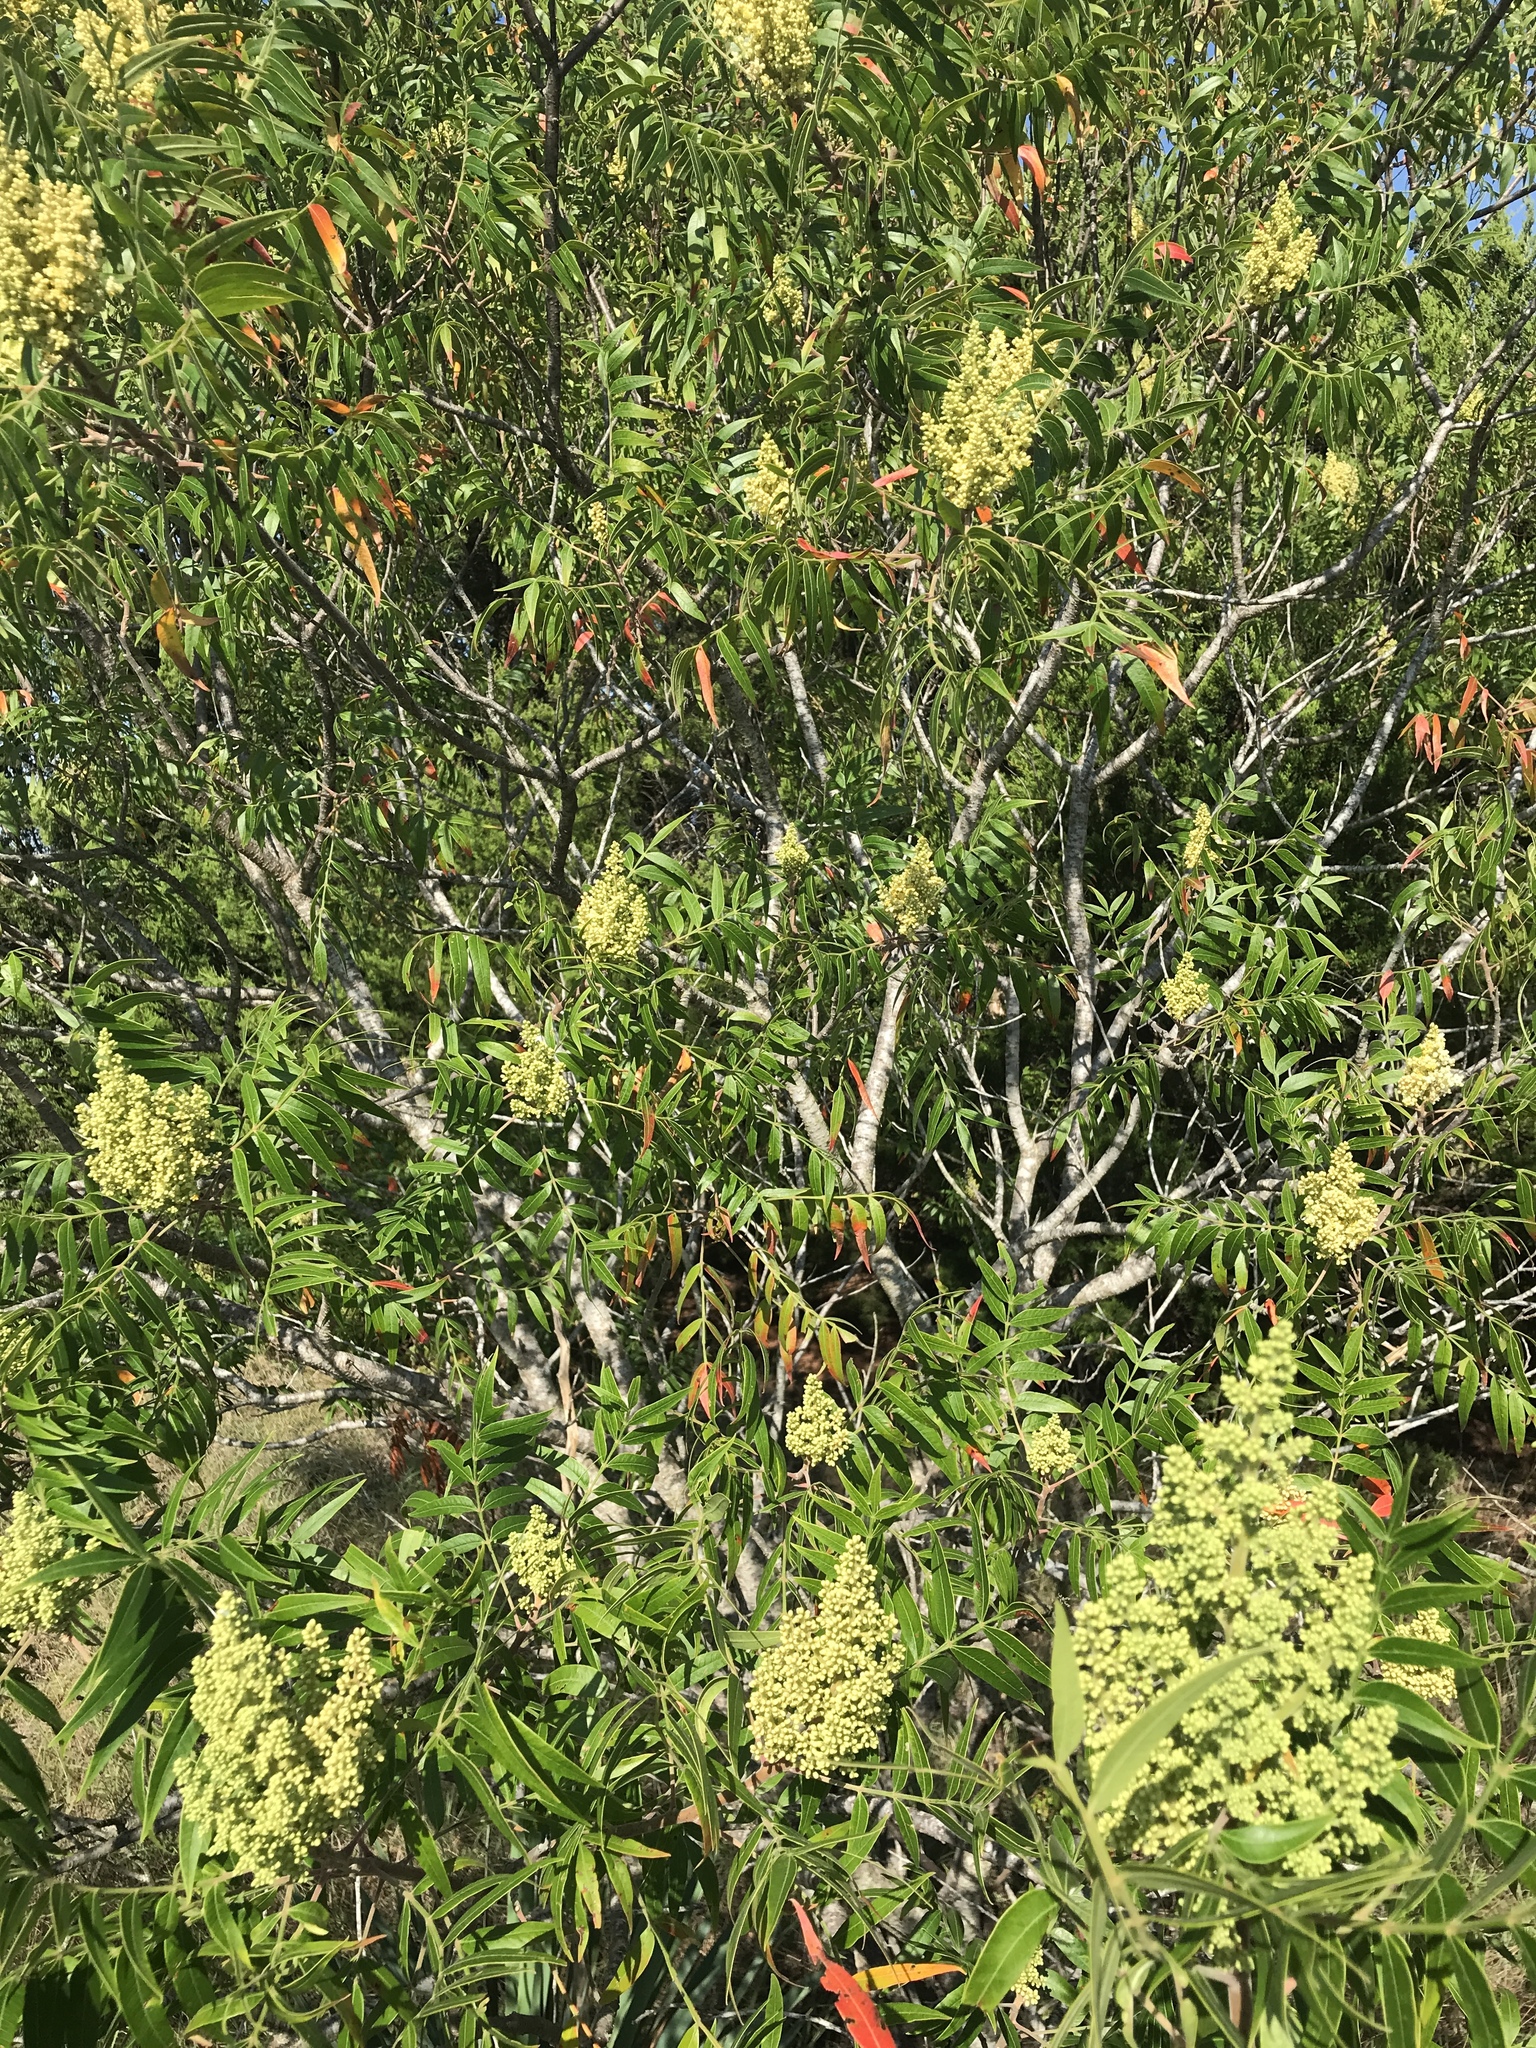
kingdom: Plantae
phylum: Tracheophyta
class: Magnoliopsida
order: Sapindales
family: Anacardiaceae
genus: Rhus
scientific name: Rhus lanceolata
